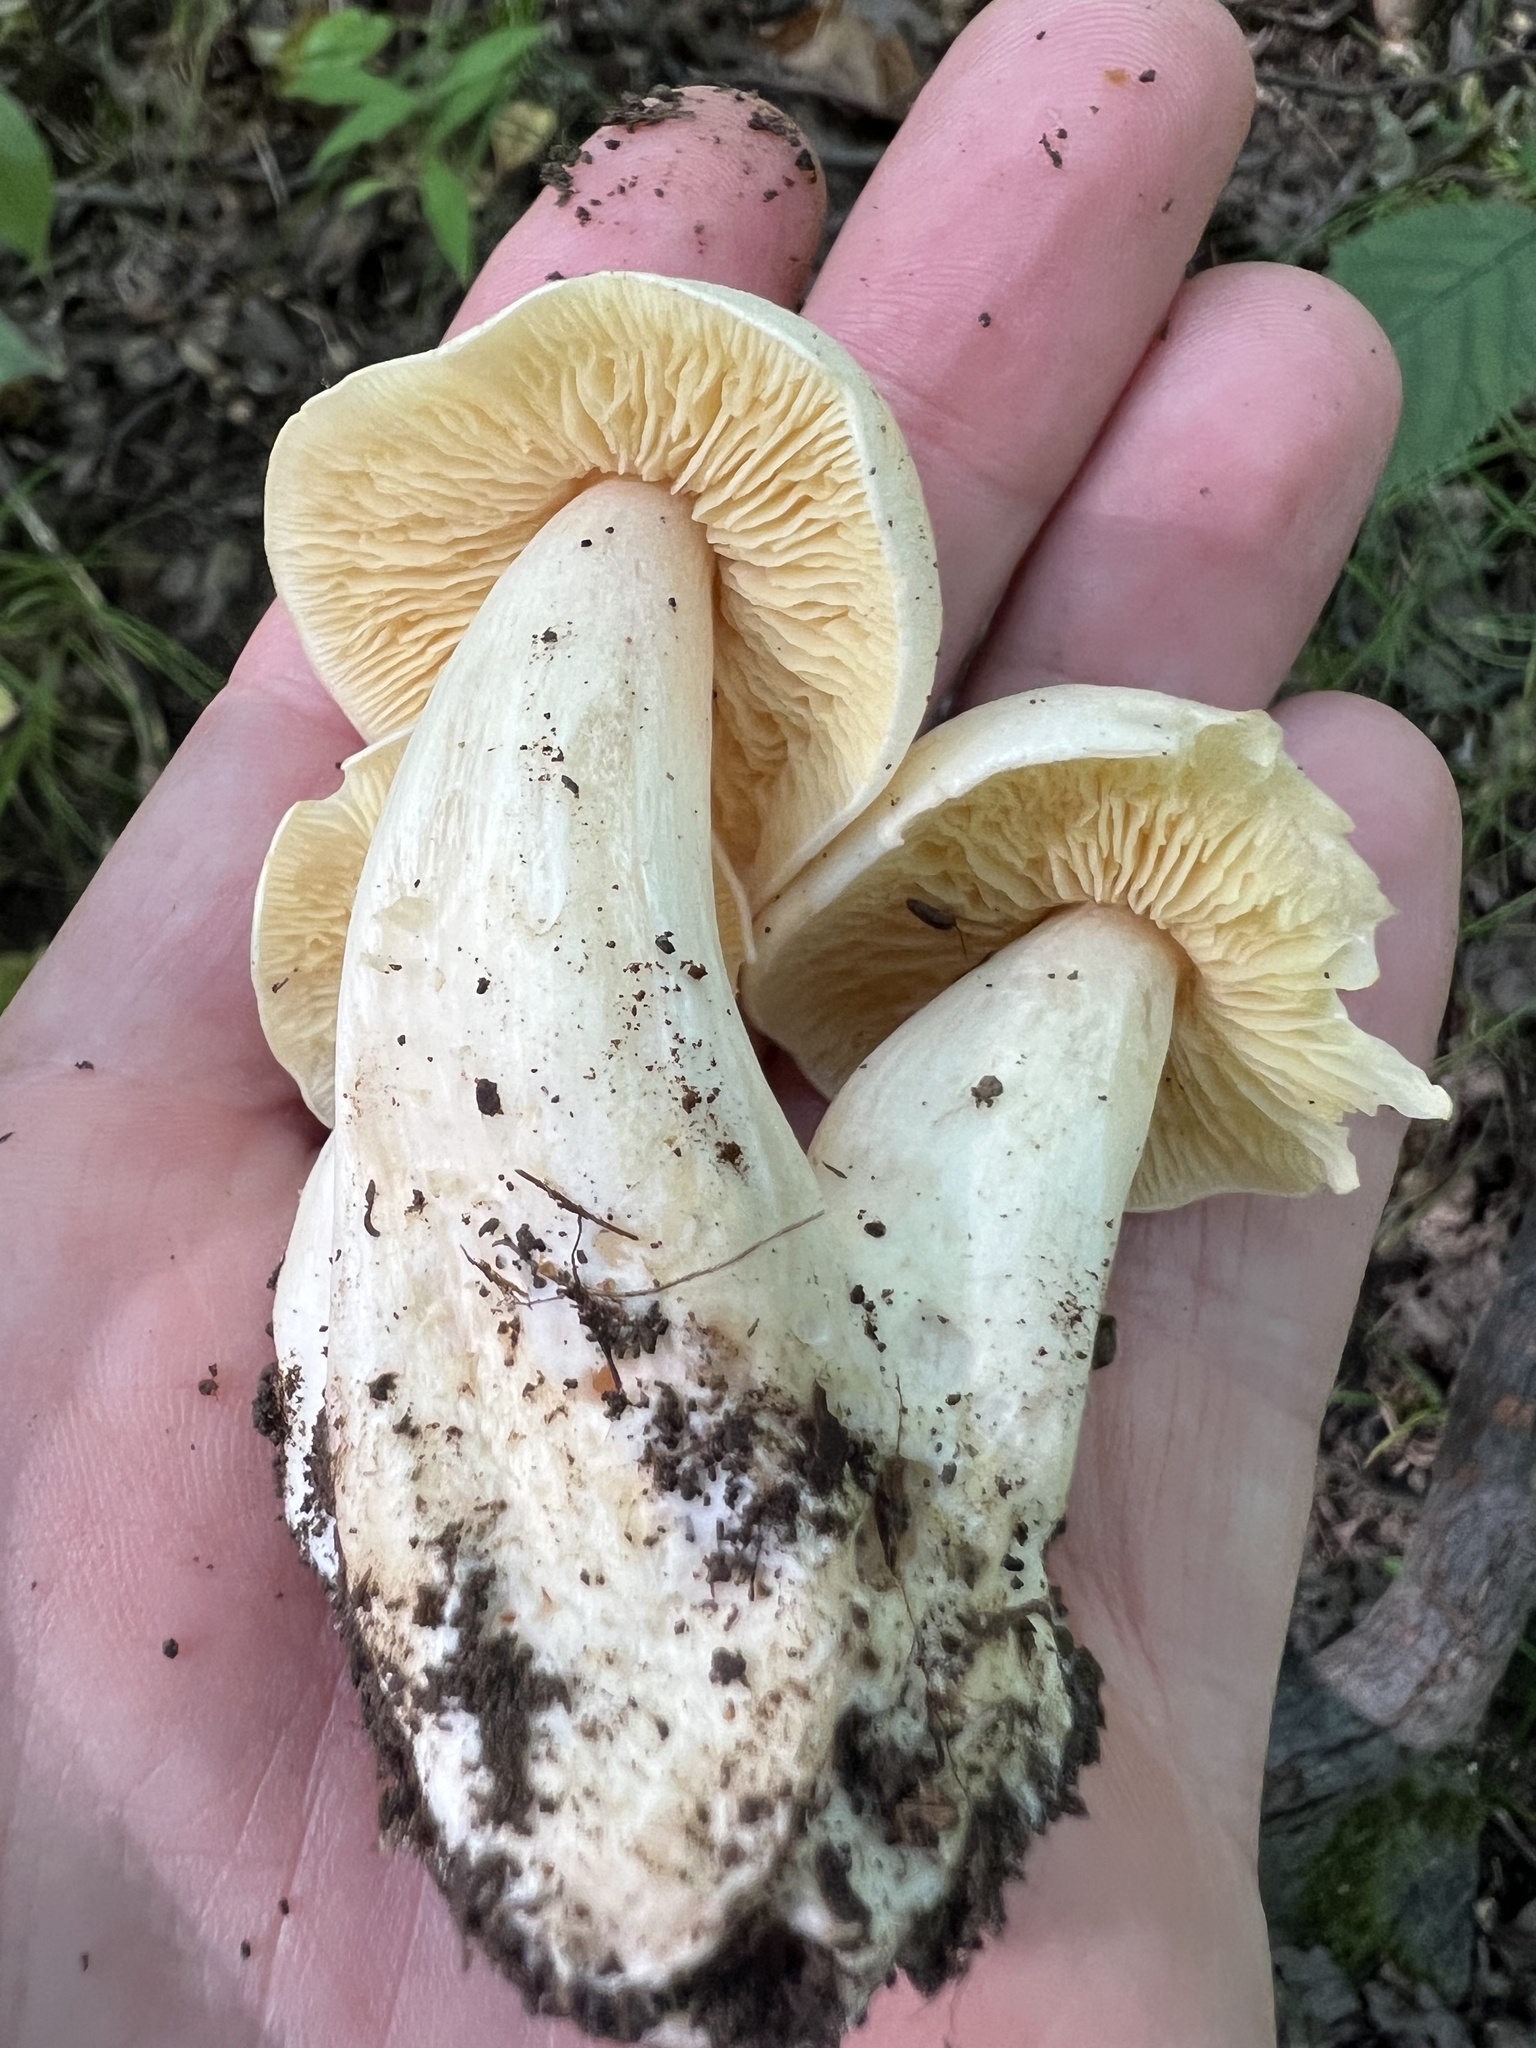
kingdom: Fungi
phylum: Basidiomycota
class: Agaricomycetes
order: Agaricales
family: Entolomataceae
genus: Entoloma
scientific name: Entoloma luridum
